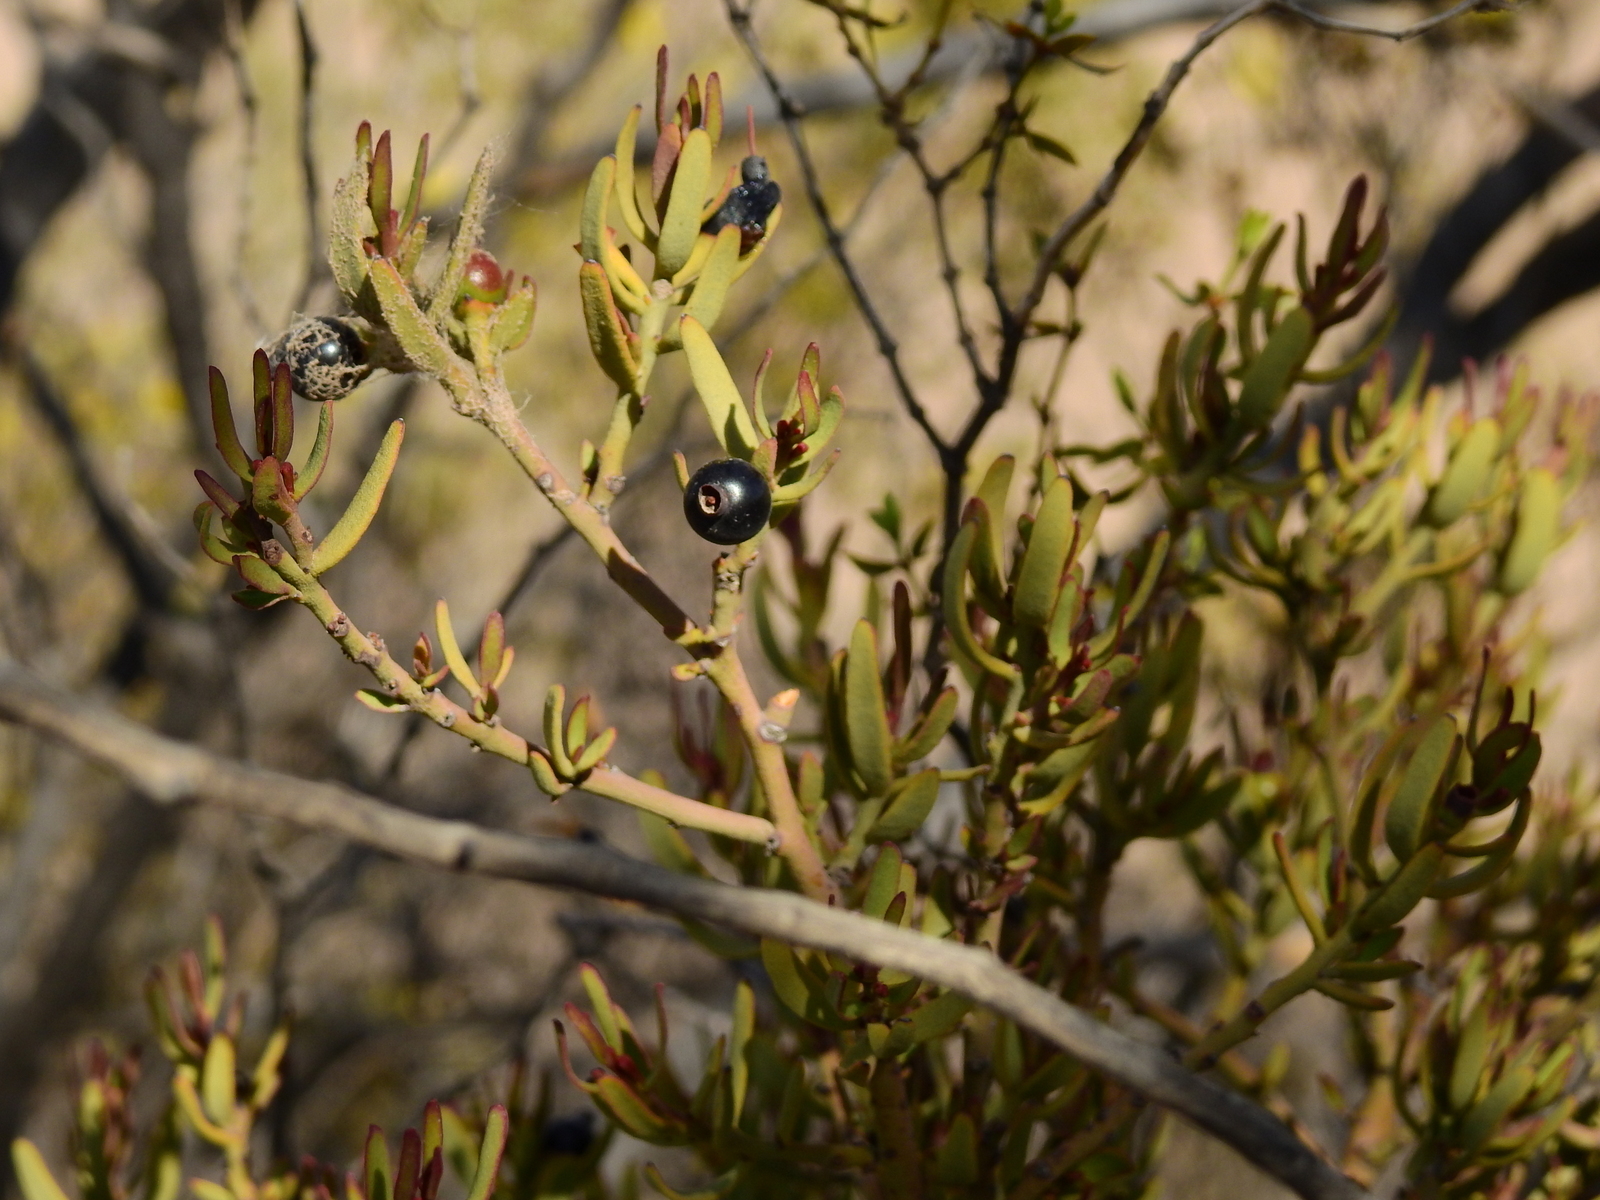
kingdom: Plantae
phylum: Tracheophyta
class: Magnoliopsida
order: Santalales
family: Loranthaceae
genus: Ligaria
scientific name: Ligaria cuneifolia
